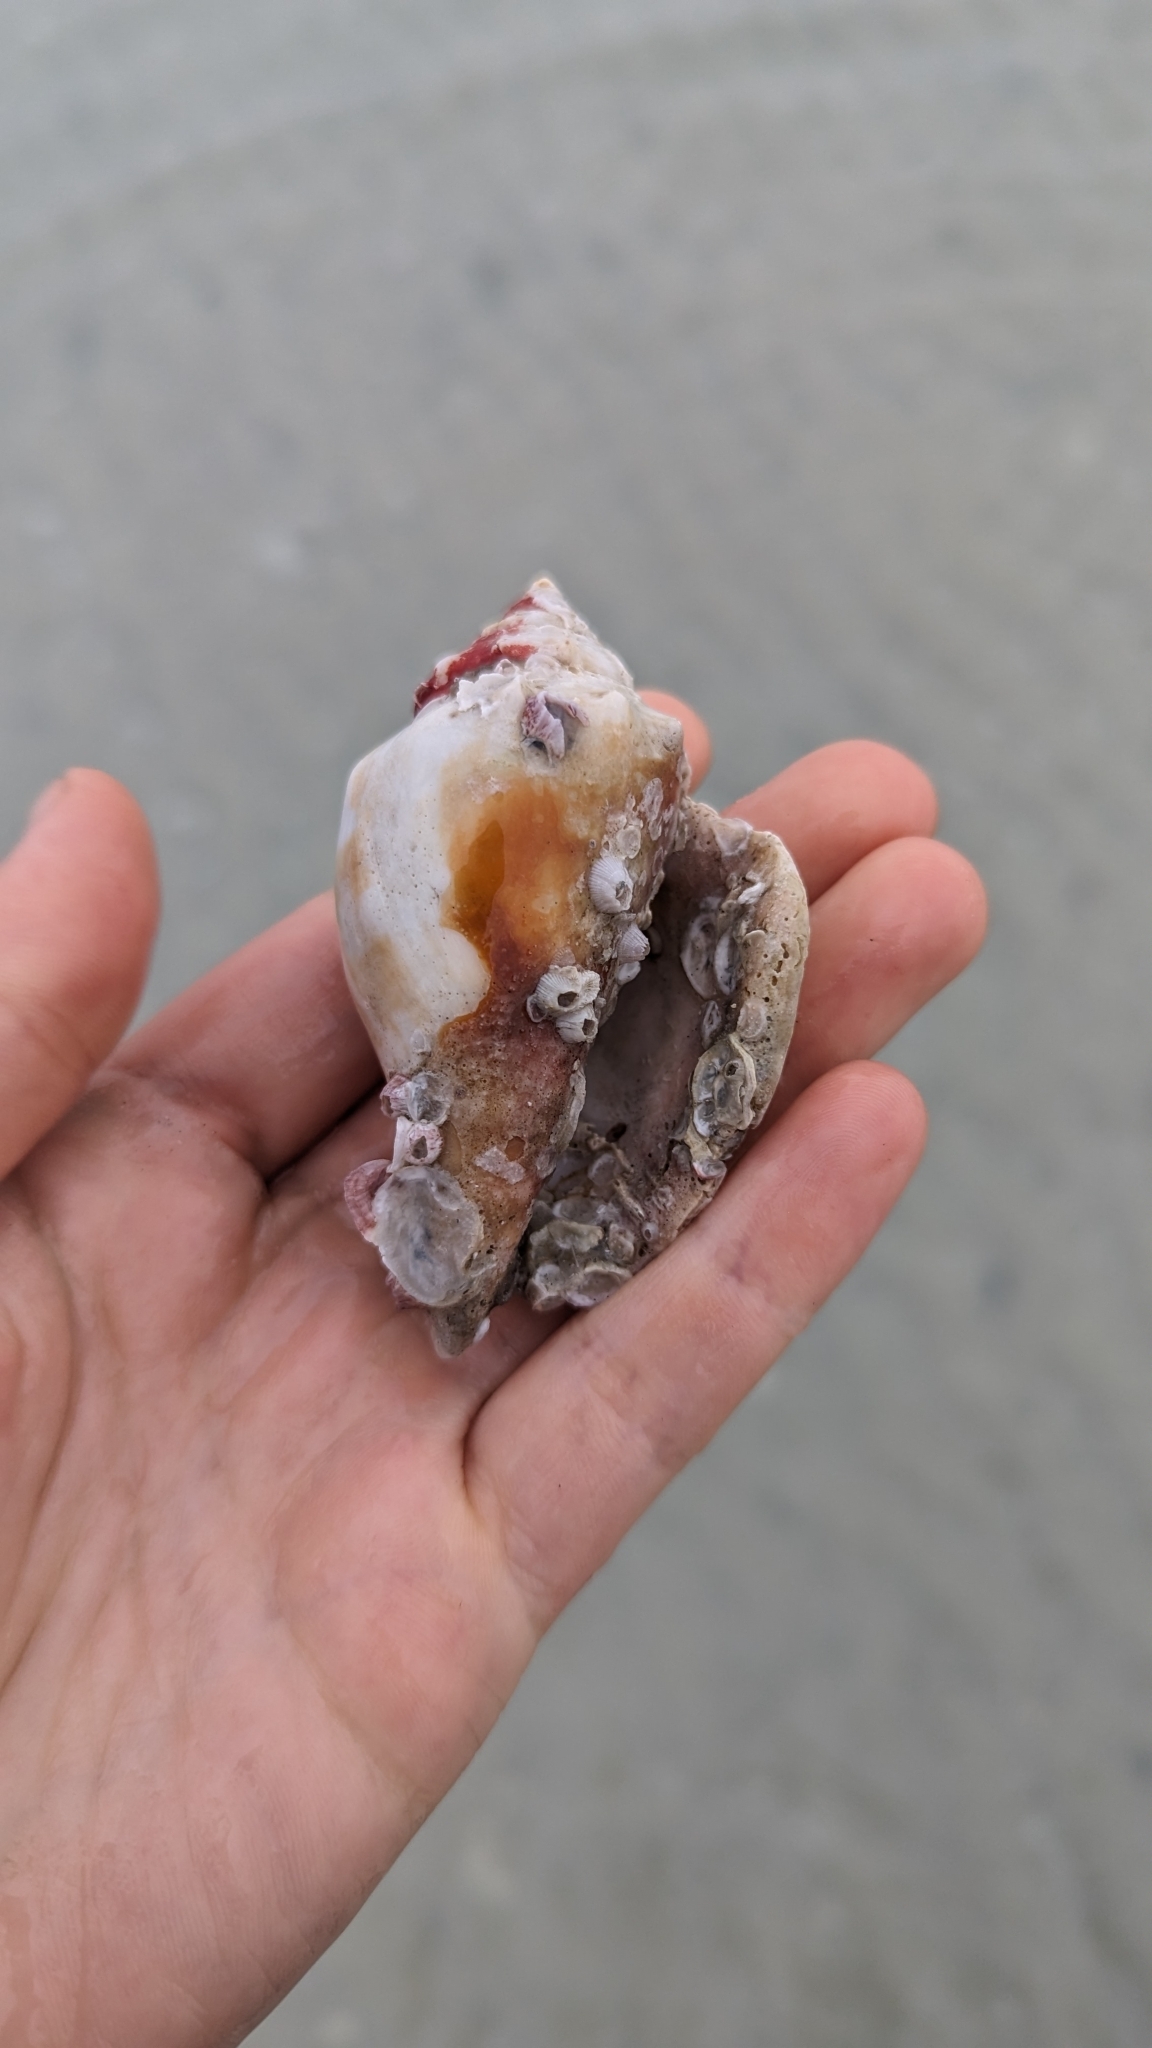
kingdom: Animalia
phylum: Mollusca
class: Gastropoda
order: Littorinimorpha
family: Strombidae
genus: Strombus
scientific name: Strombus alatus
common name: Florida fighting conch
